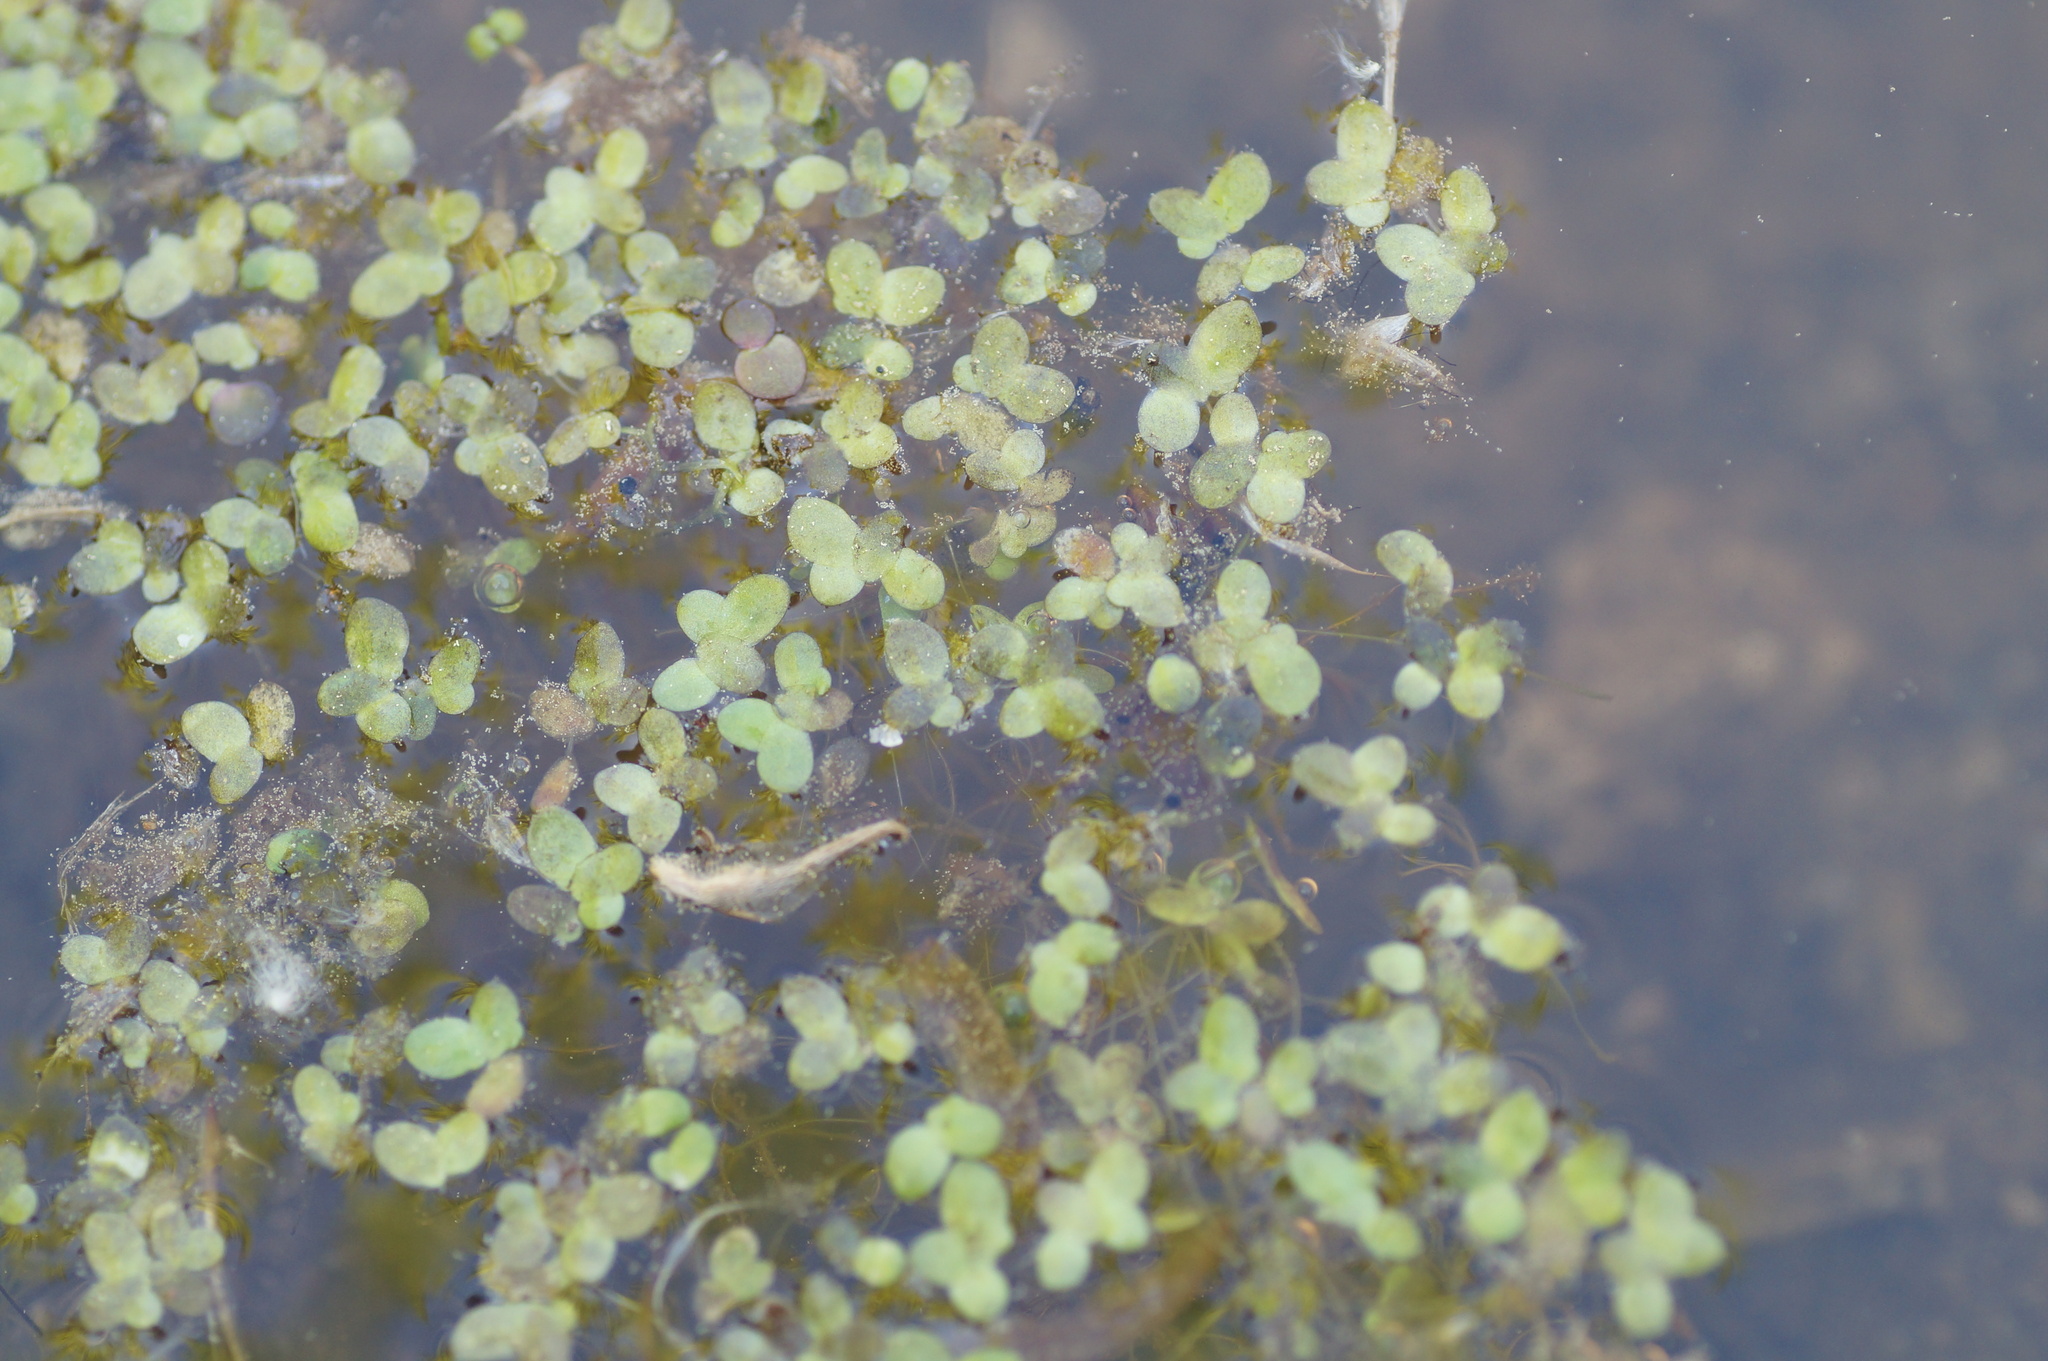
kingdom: Plantae
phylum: Tracheophyta
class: Liliopsida
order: Alismatales
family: Araceae
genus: Lemna
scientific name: Lemna minor
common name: Common duckweed
